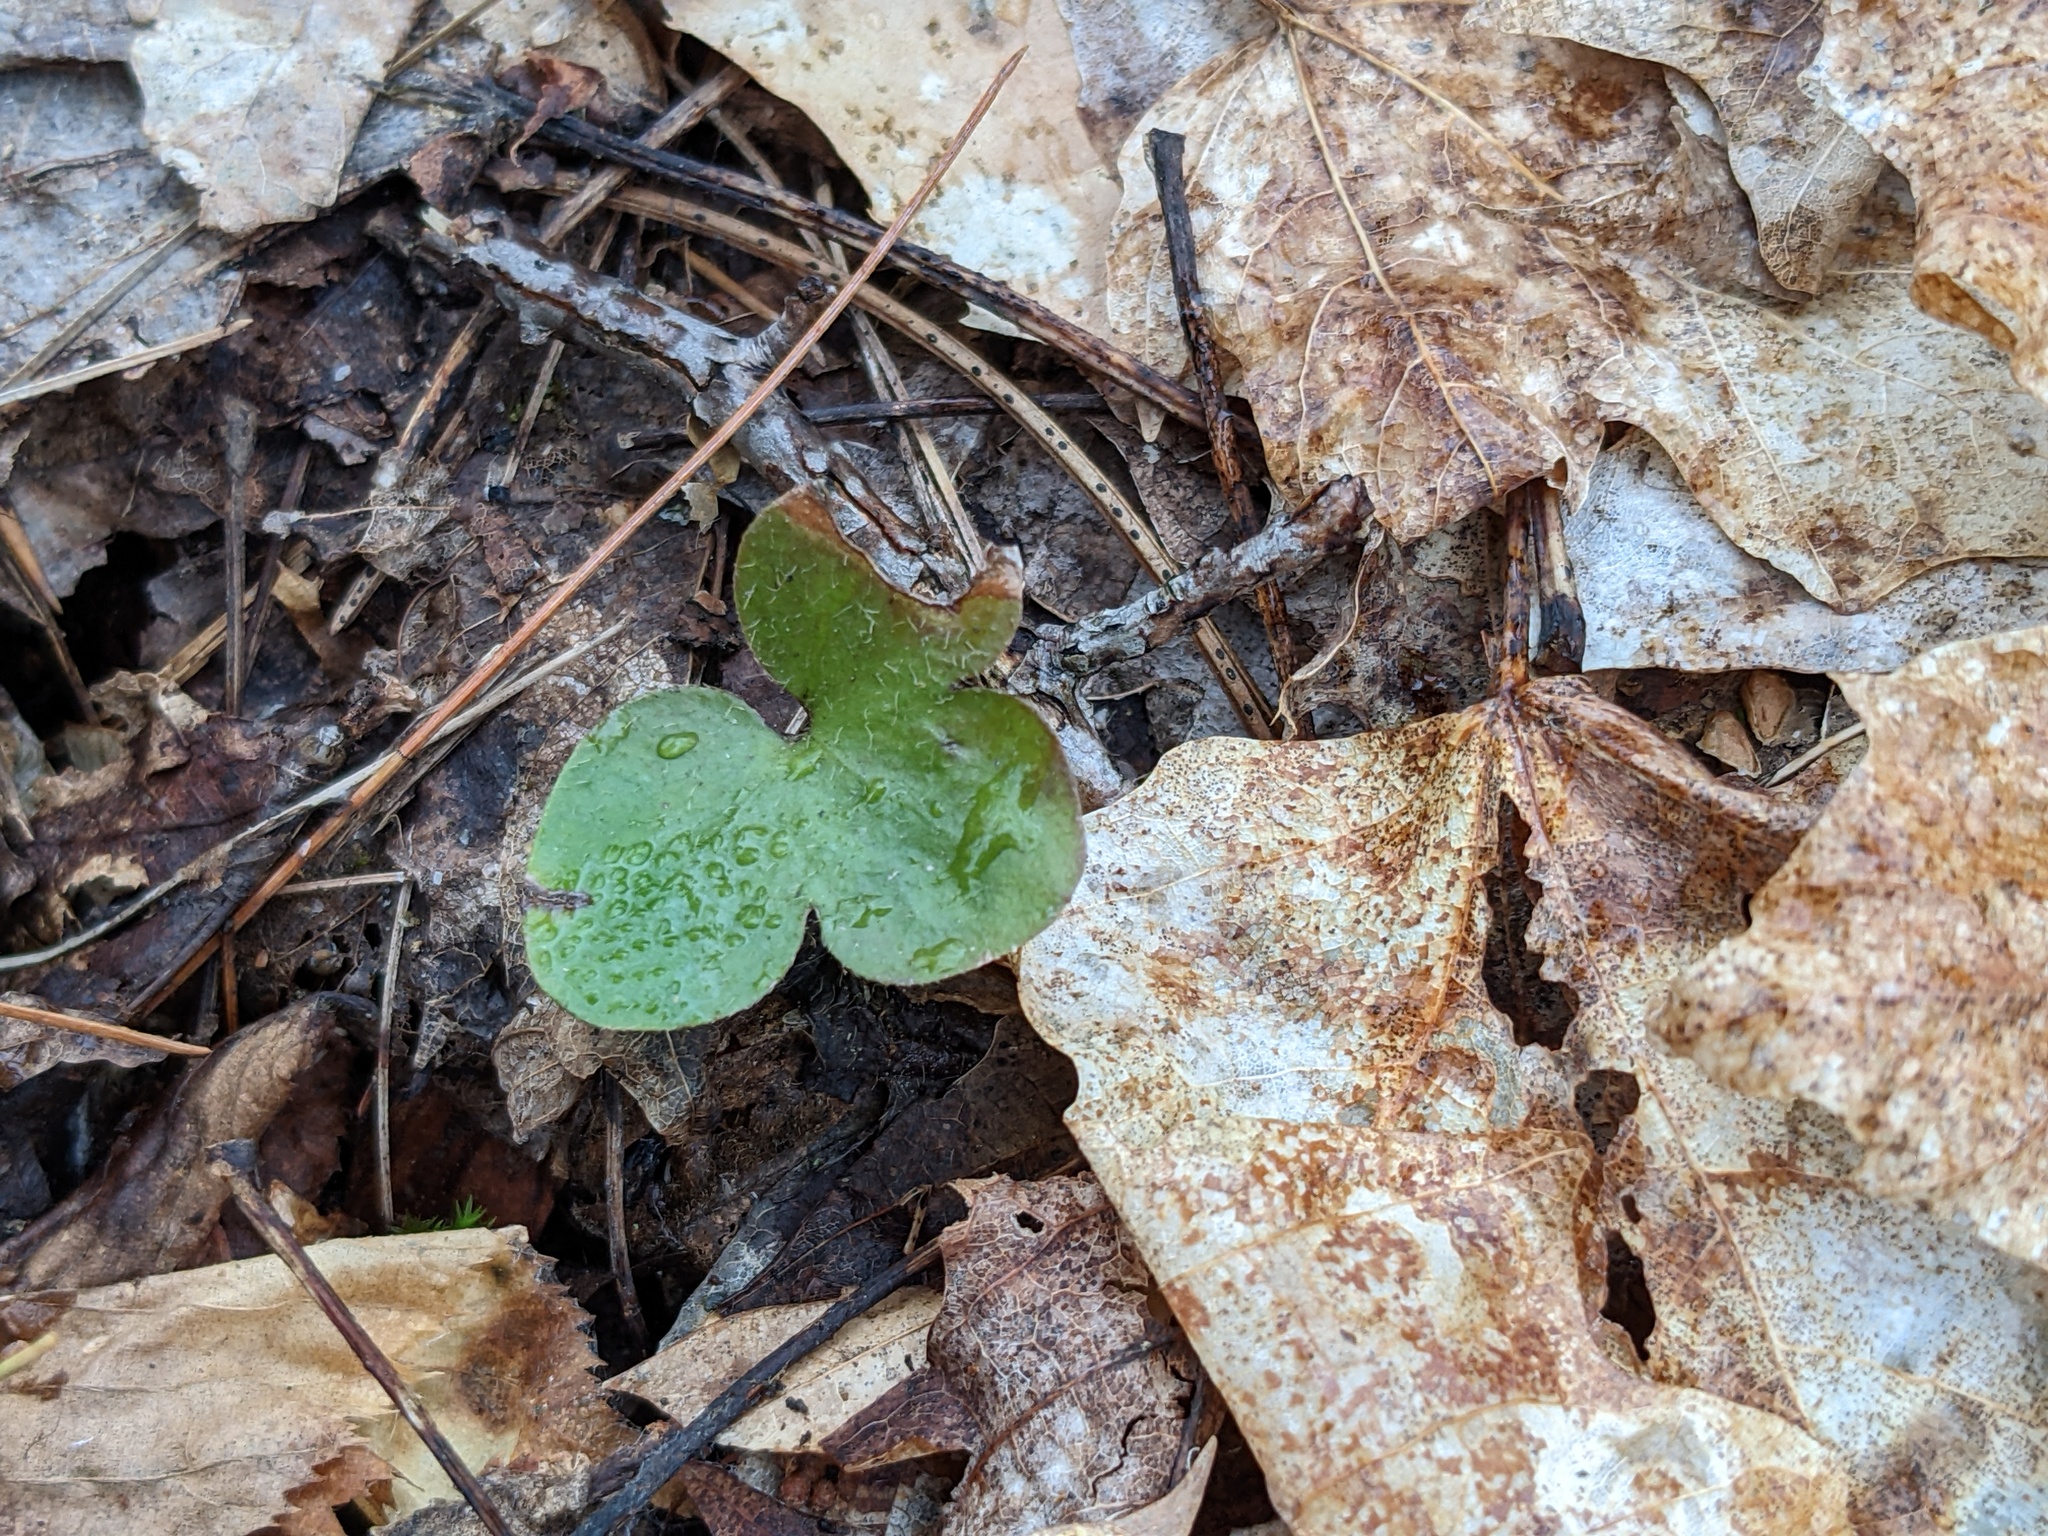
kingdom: Plantae
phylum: Tracheophyta
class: Magnoliopsida
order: Ranunculales
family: Ranunculaceae
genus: Hepatica
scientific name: Hepatica americana
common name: American hepatica
